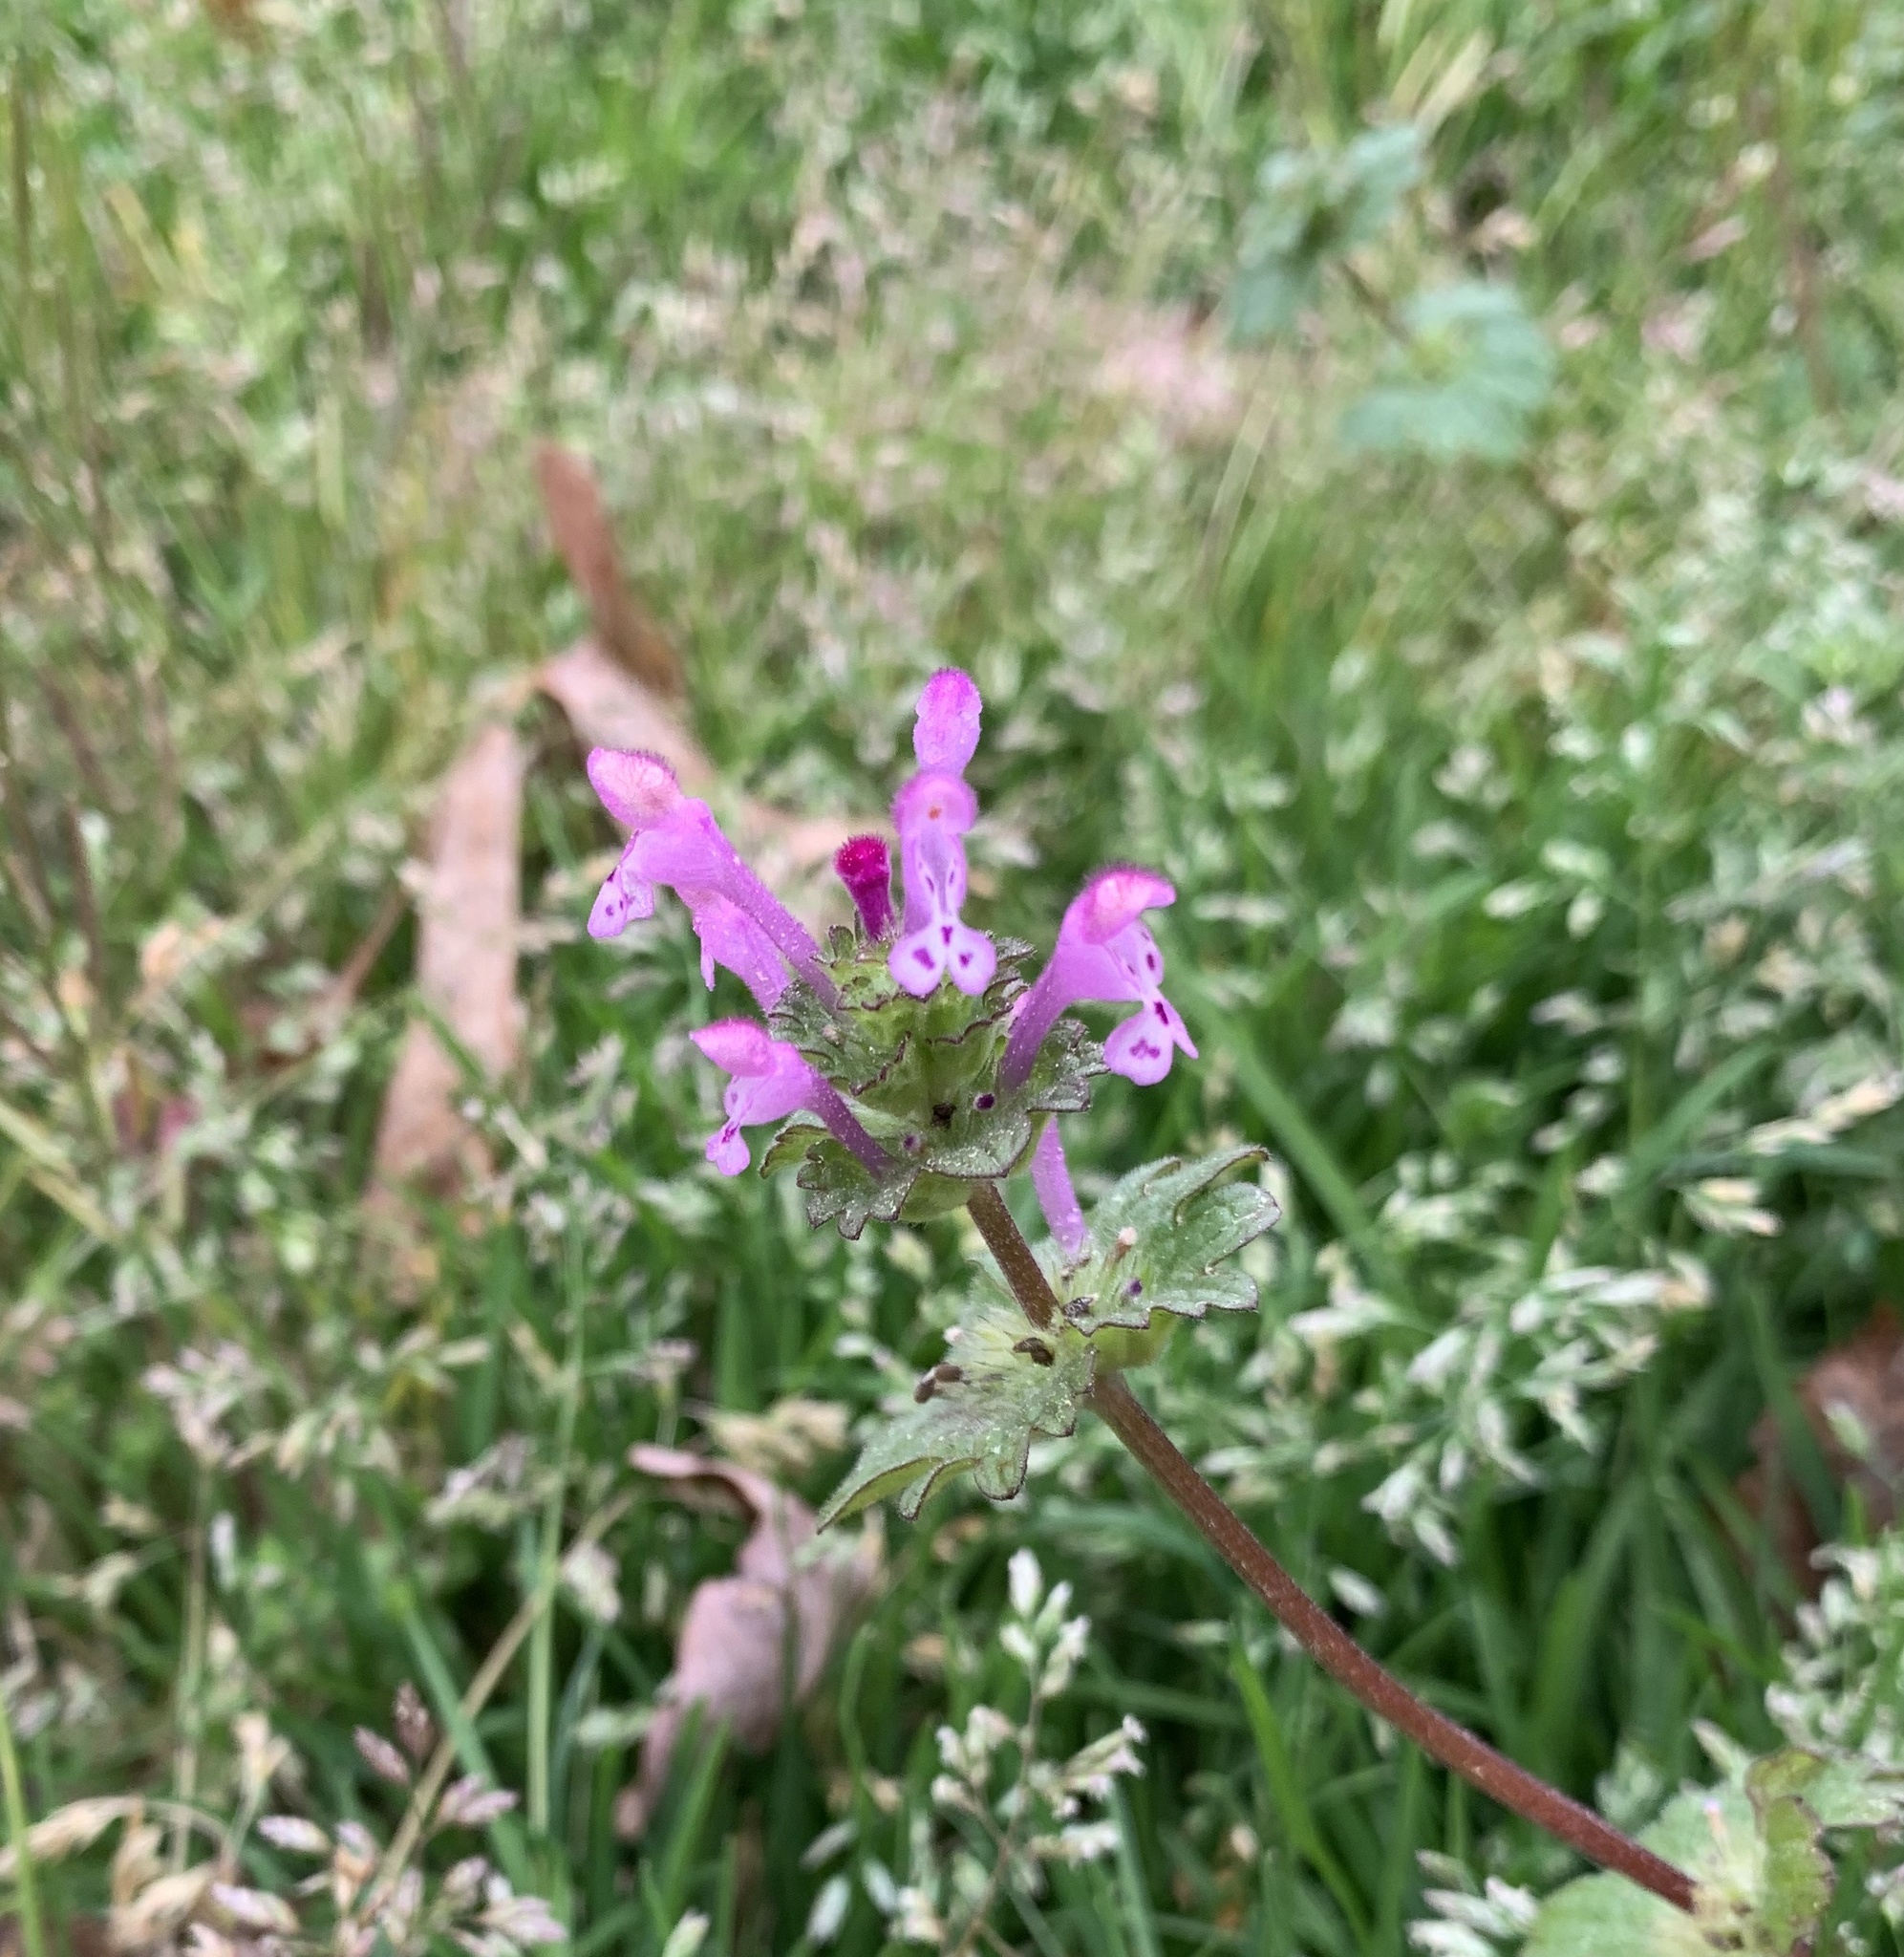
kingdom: Plantae
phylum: Tracheophyta
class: Magnoliopsida
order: Lamiales
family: Lamiaceae
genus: Lamium
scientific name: Lamium amplexicaule
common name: Henbit dead-nettle
